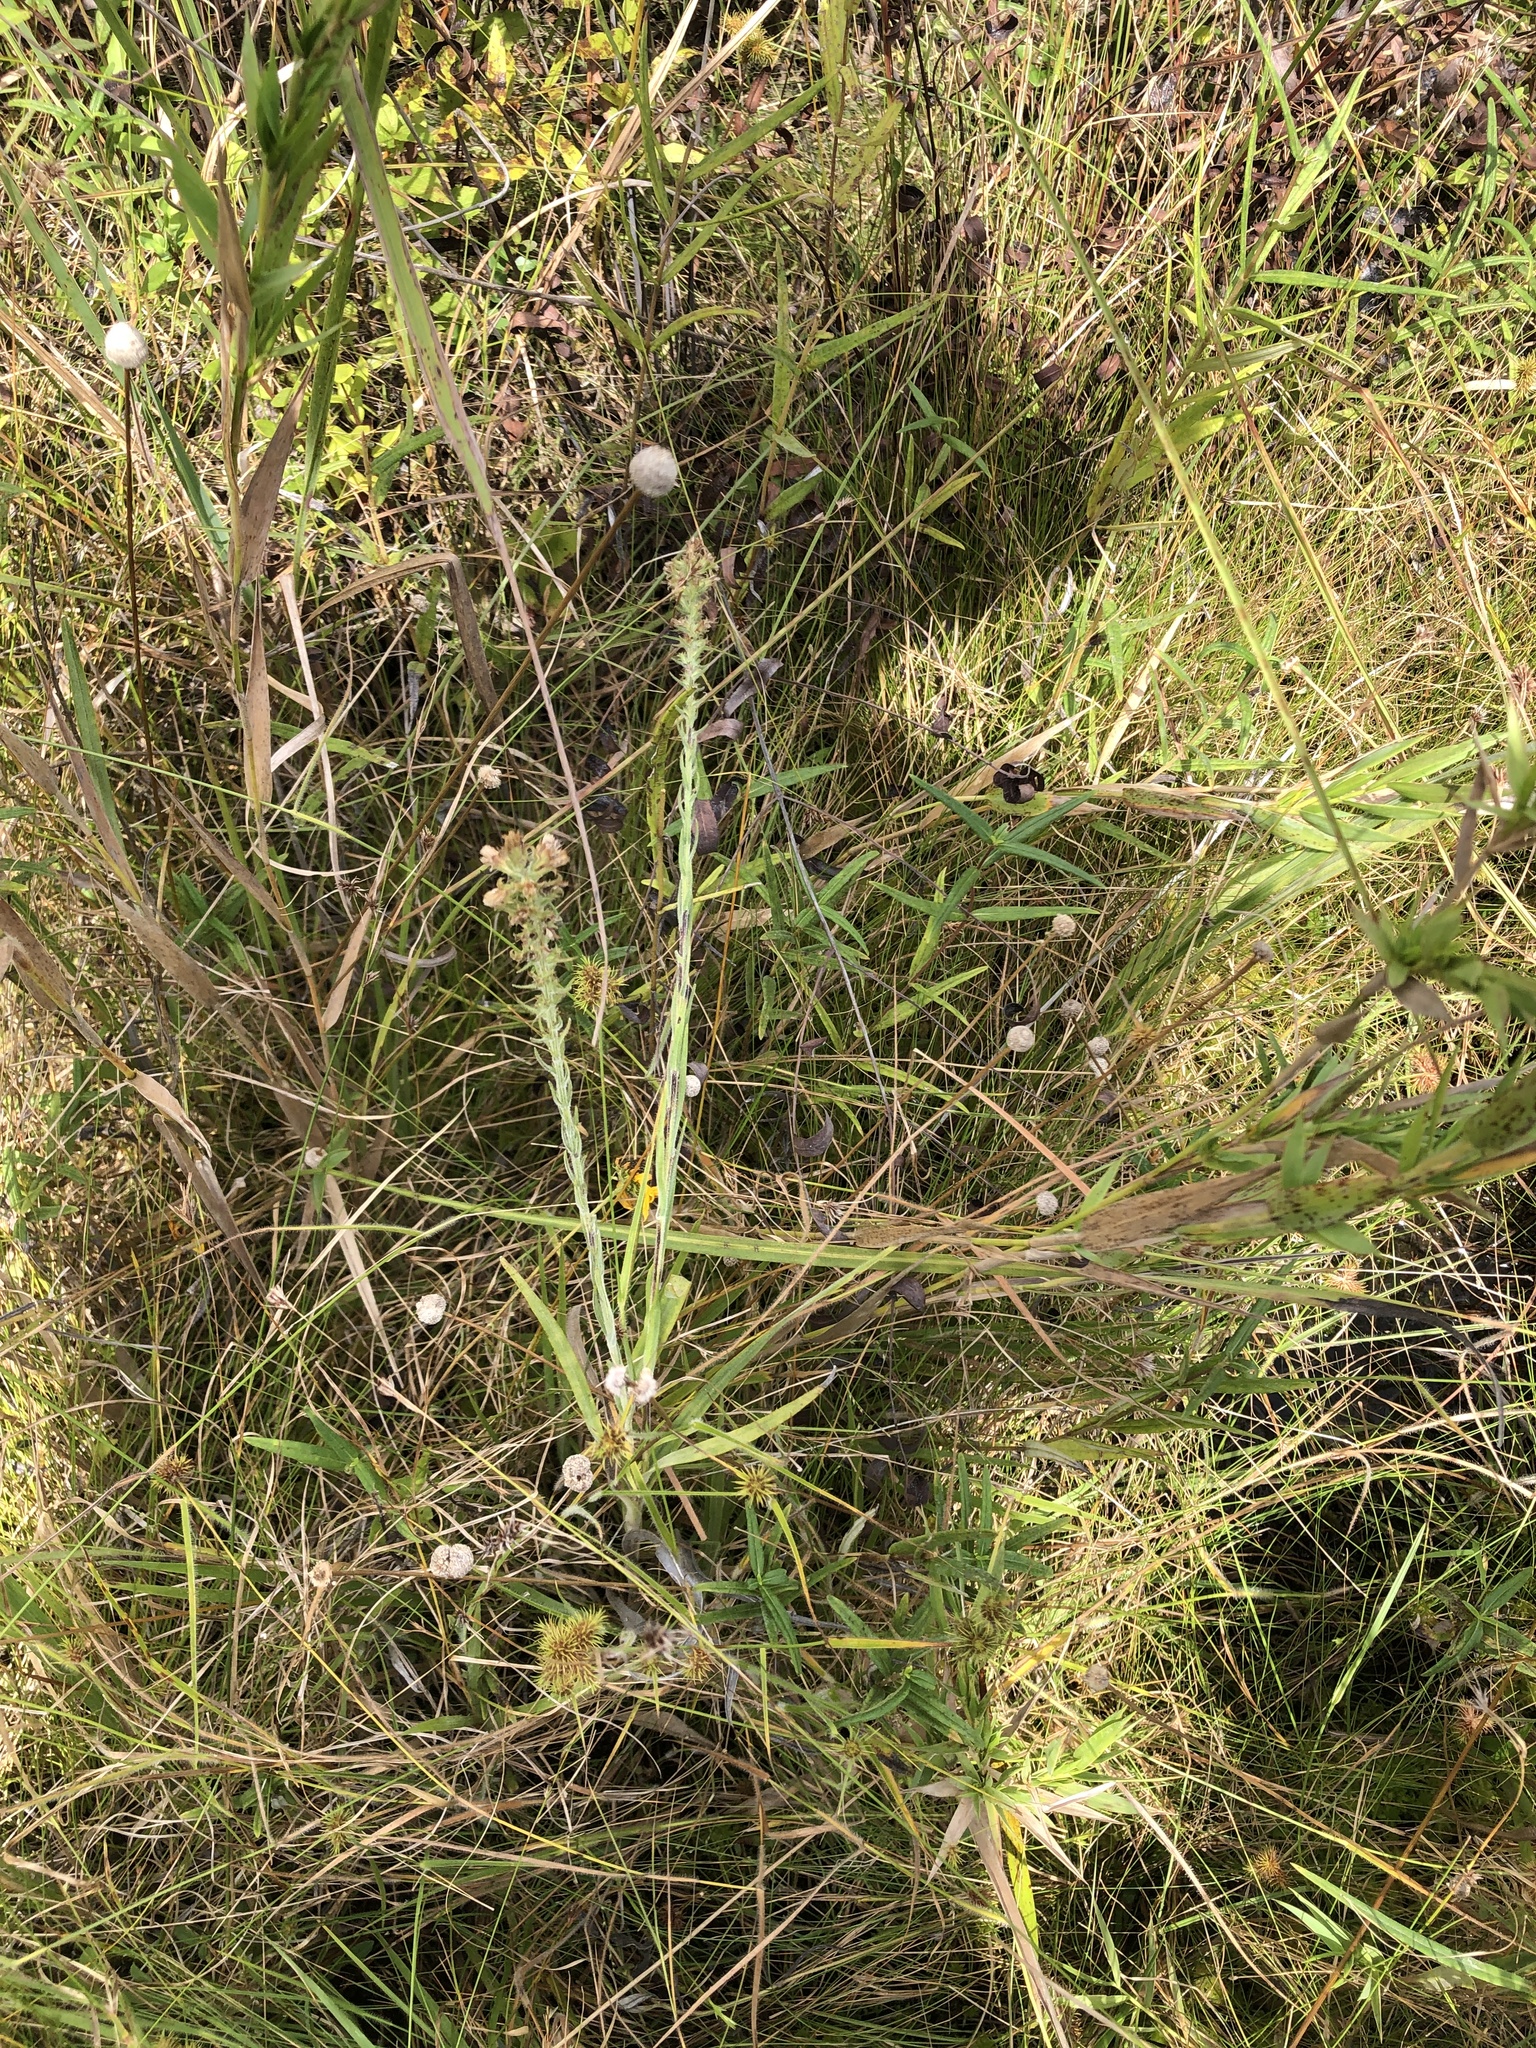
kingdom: Plantae
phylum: Tracheophyta
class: Magnoliopsida
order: Asterales
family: Asteraceae
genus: Liatris
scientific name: Liatris pycnostachya
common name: Cattail gayfeather
